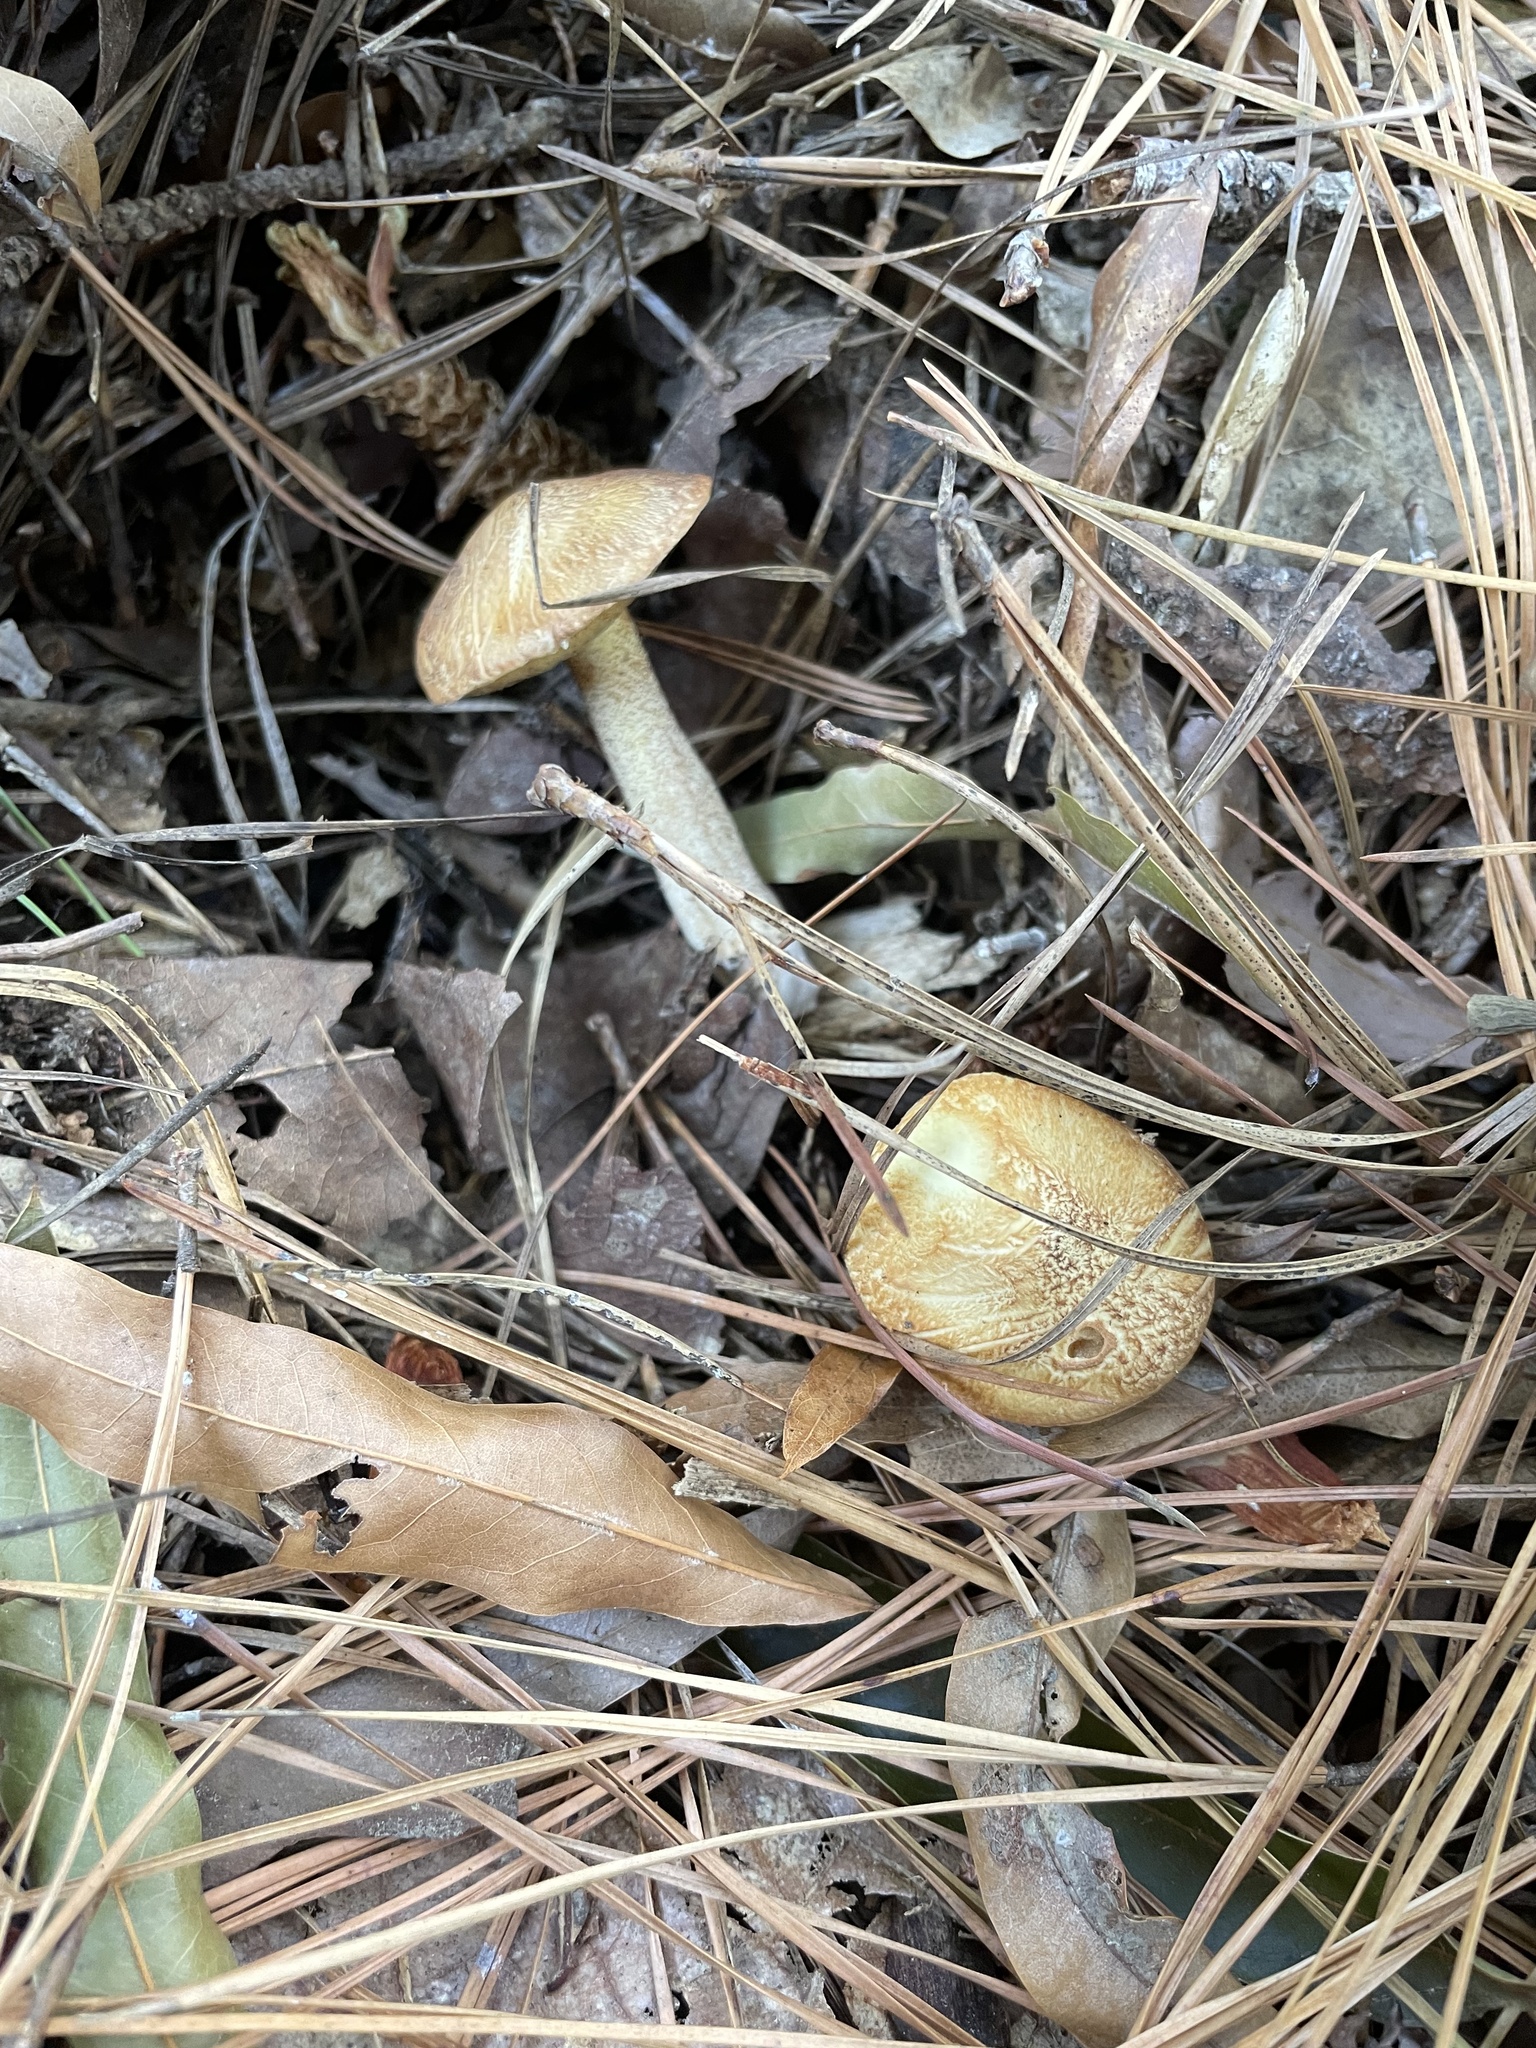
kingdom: Fungi
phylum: Basidiomycota
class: Agaricomycetes
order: Boletales
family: Suillaceae
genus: Suillus
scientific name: Suillus hirtellus
